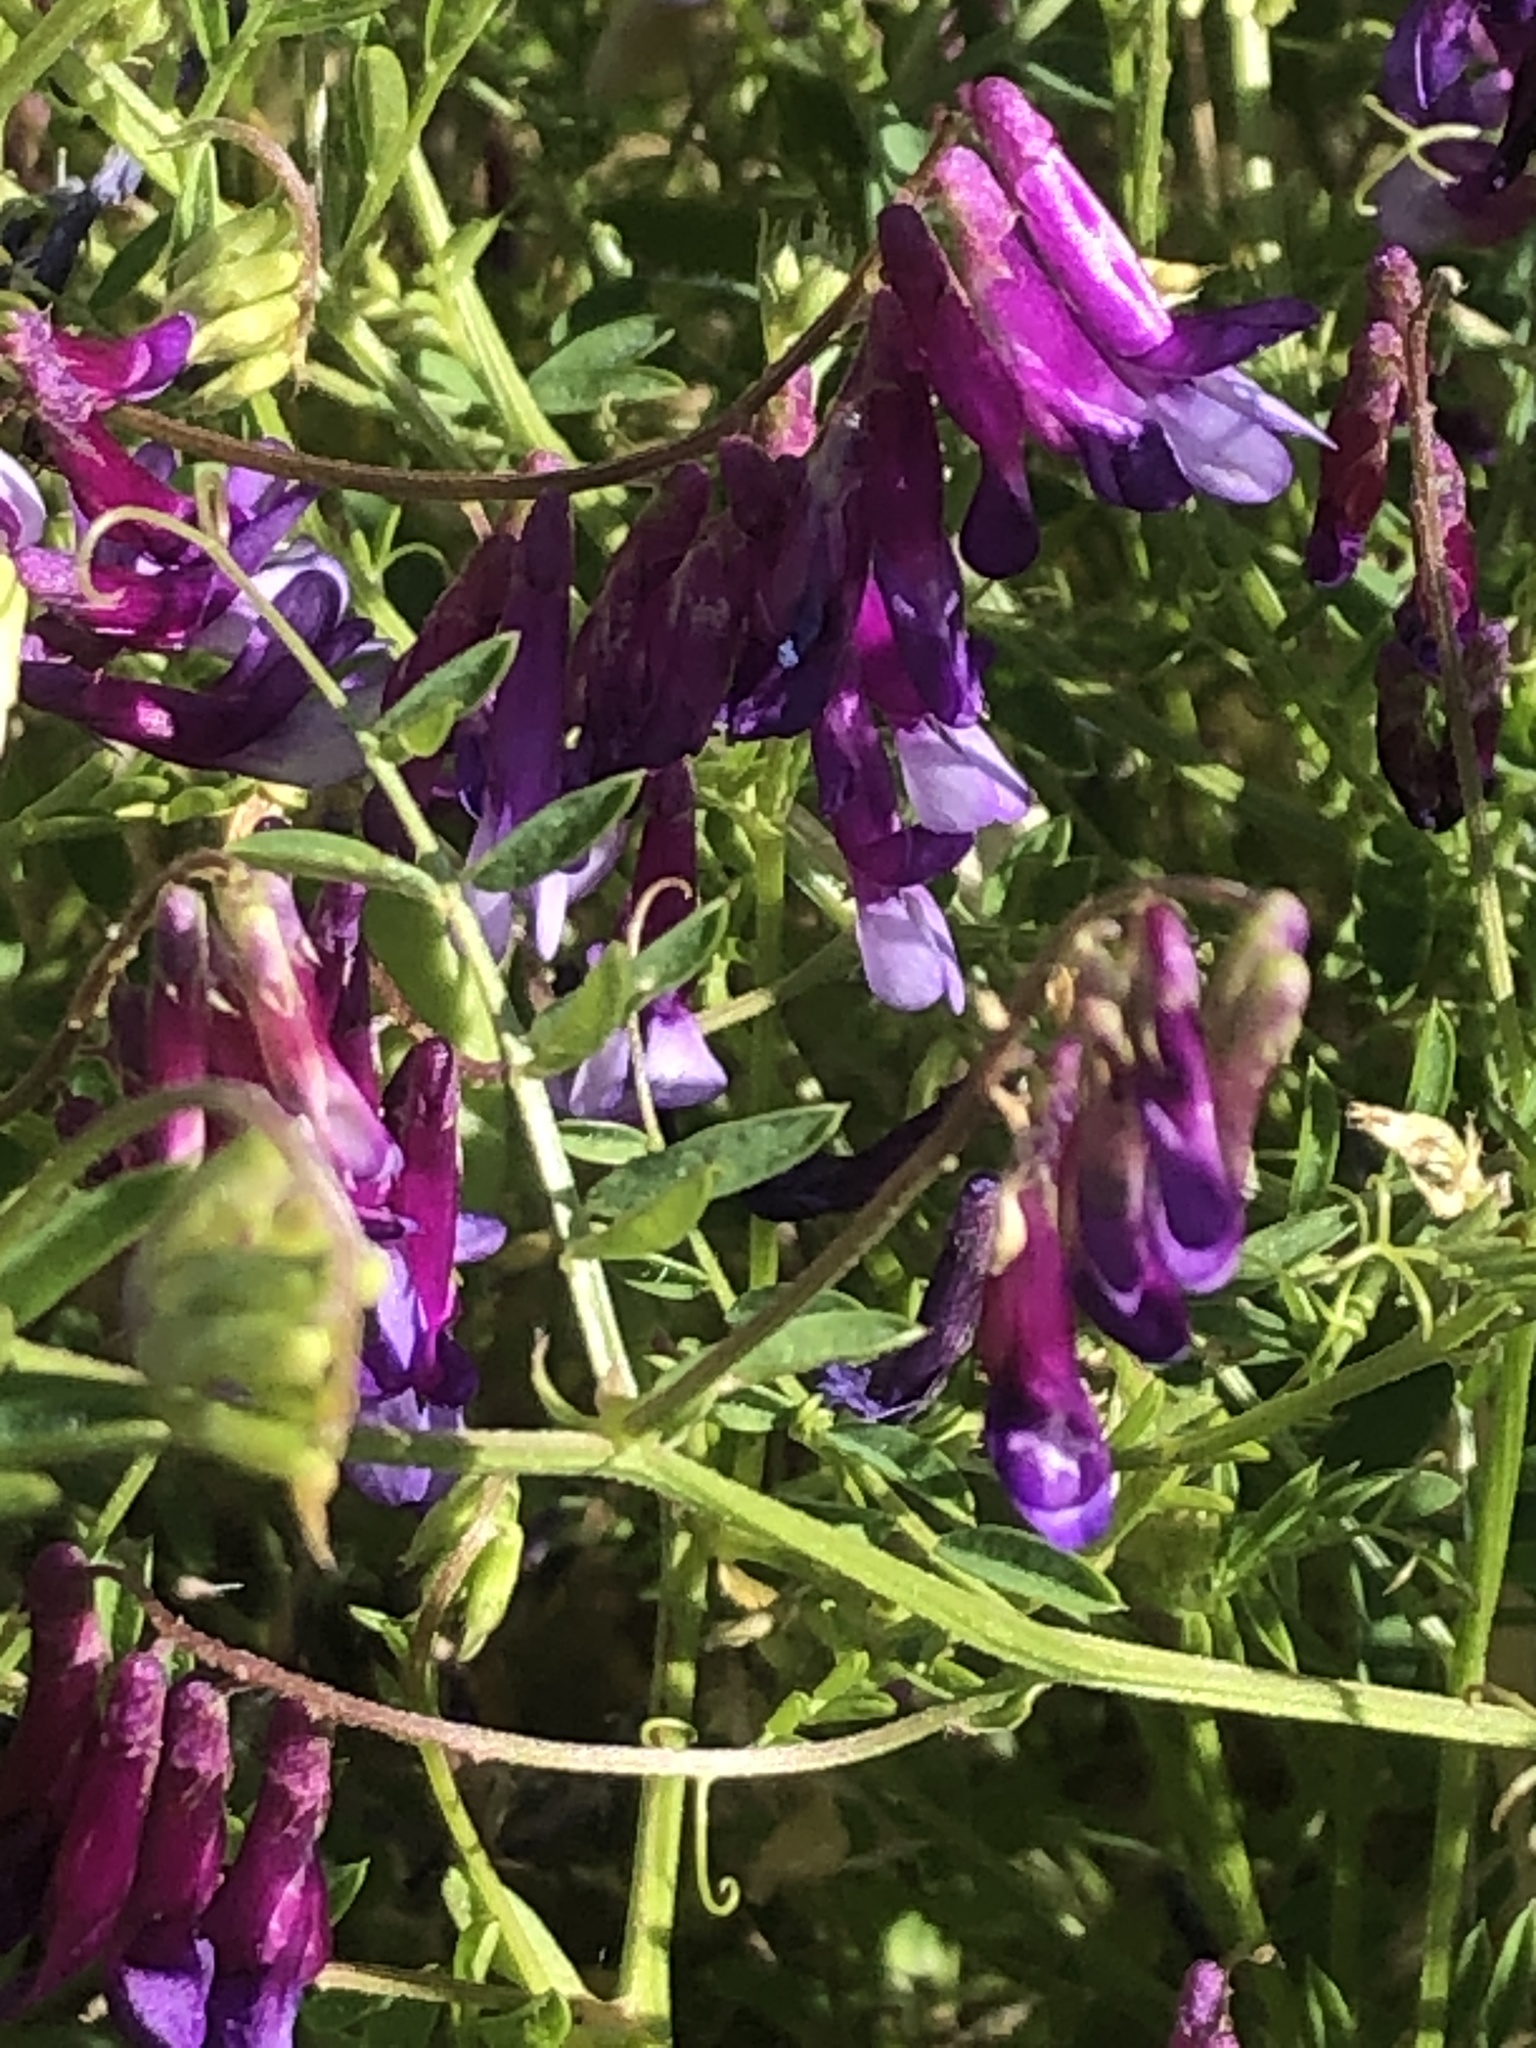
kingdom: Plantae
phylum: Tracheophyta
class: Magnoliopsida
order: Fabales
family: Fabaceae
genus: Vicia
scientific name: Vicia villosa
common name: Fodder vetch
